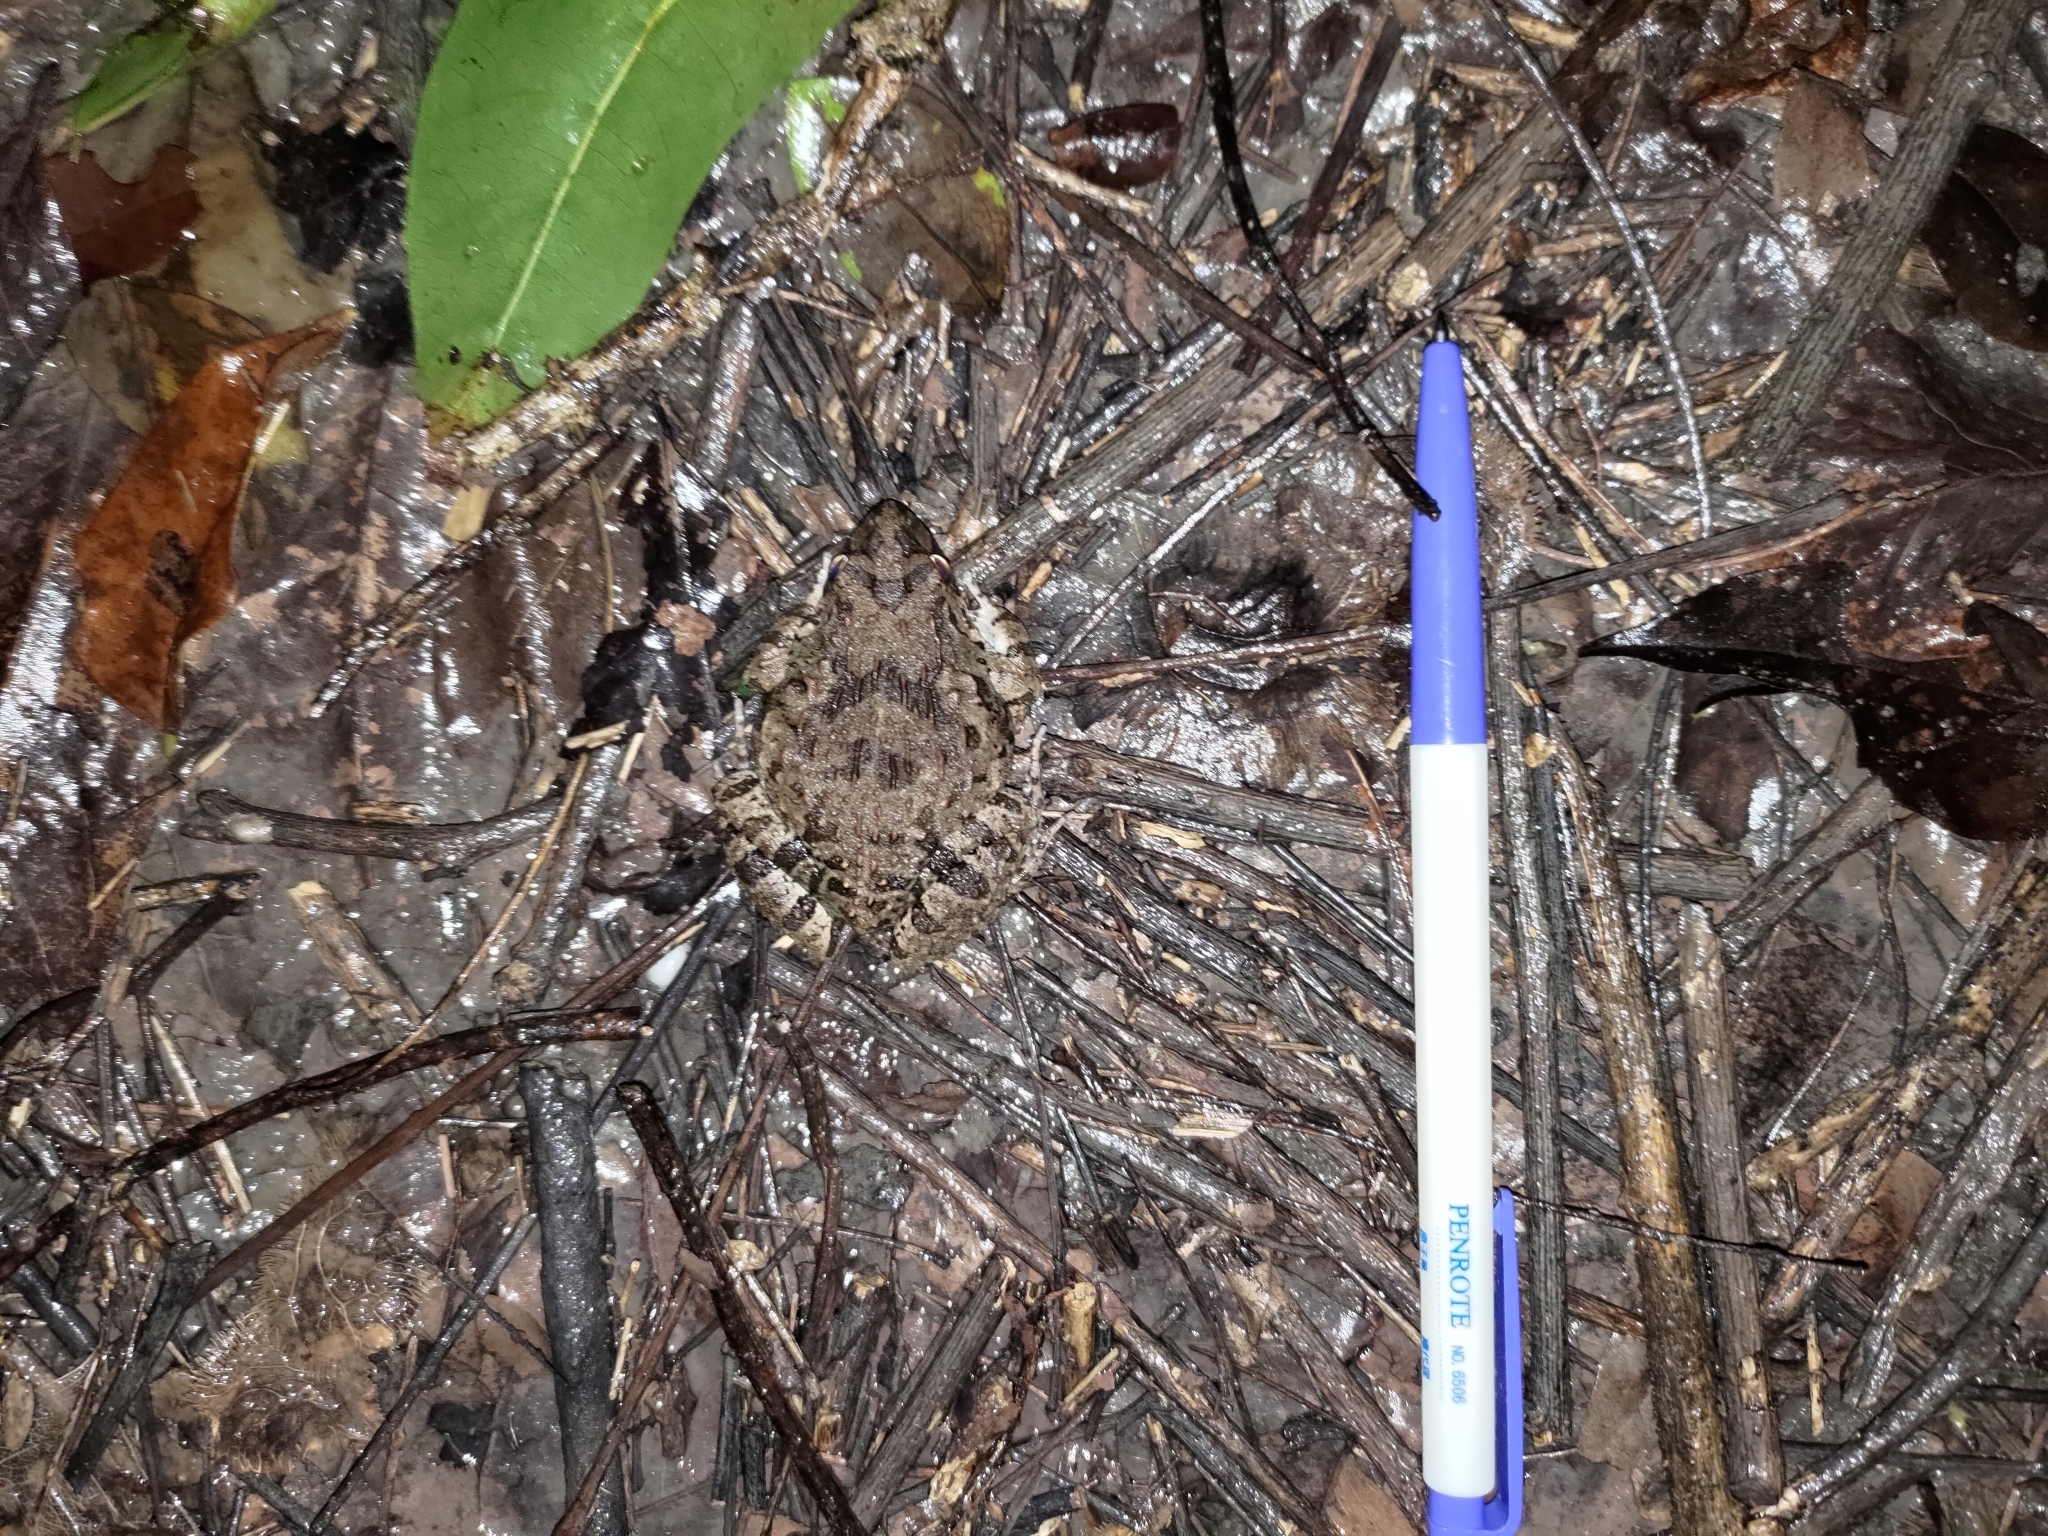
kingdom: Animalia
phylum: Chordata
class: Amphibia
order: Anura
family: Dicroglossidae
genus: Fejervarya
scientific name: Fejervarya limnocharis
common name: Asian grass frog/common pond frog/field frog/grass frog/indian rice frog
